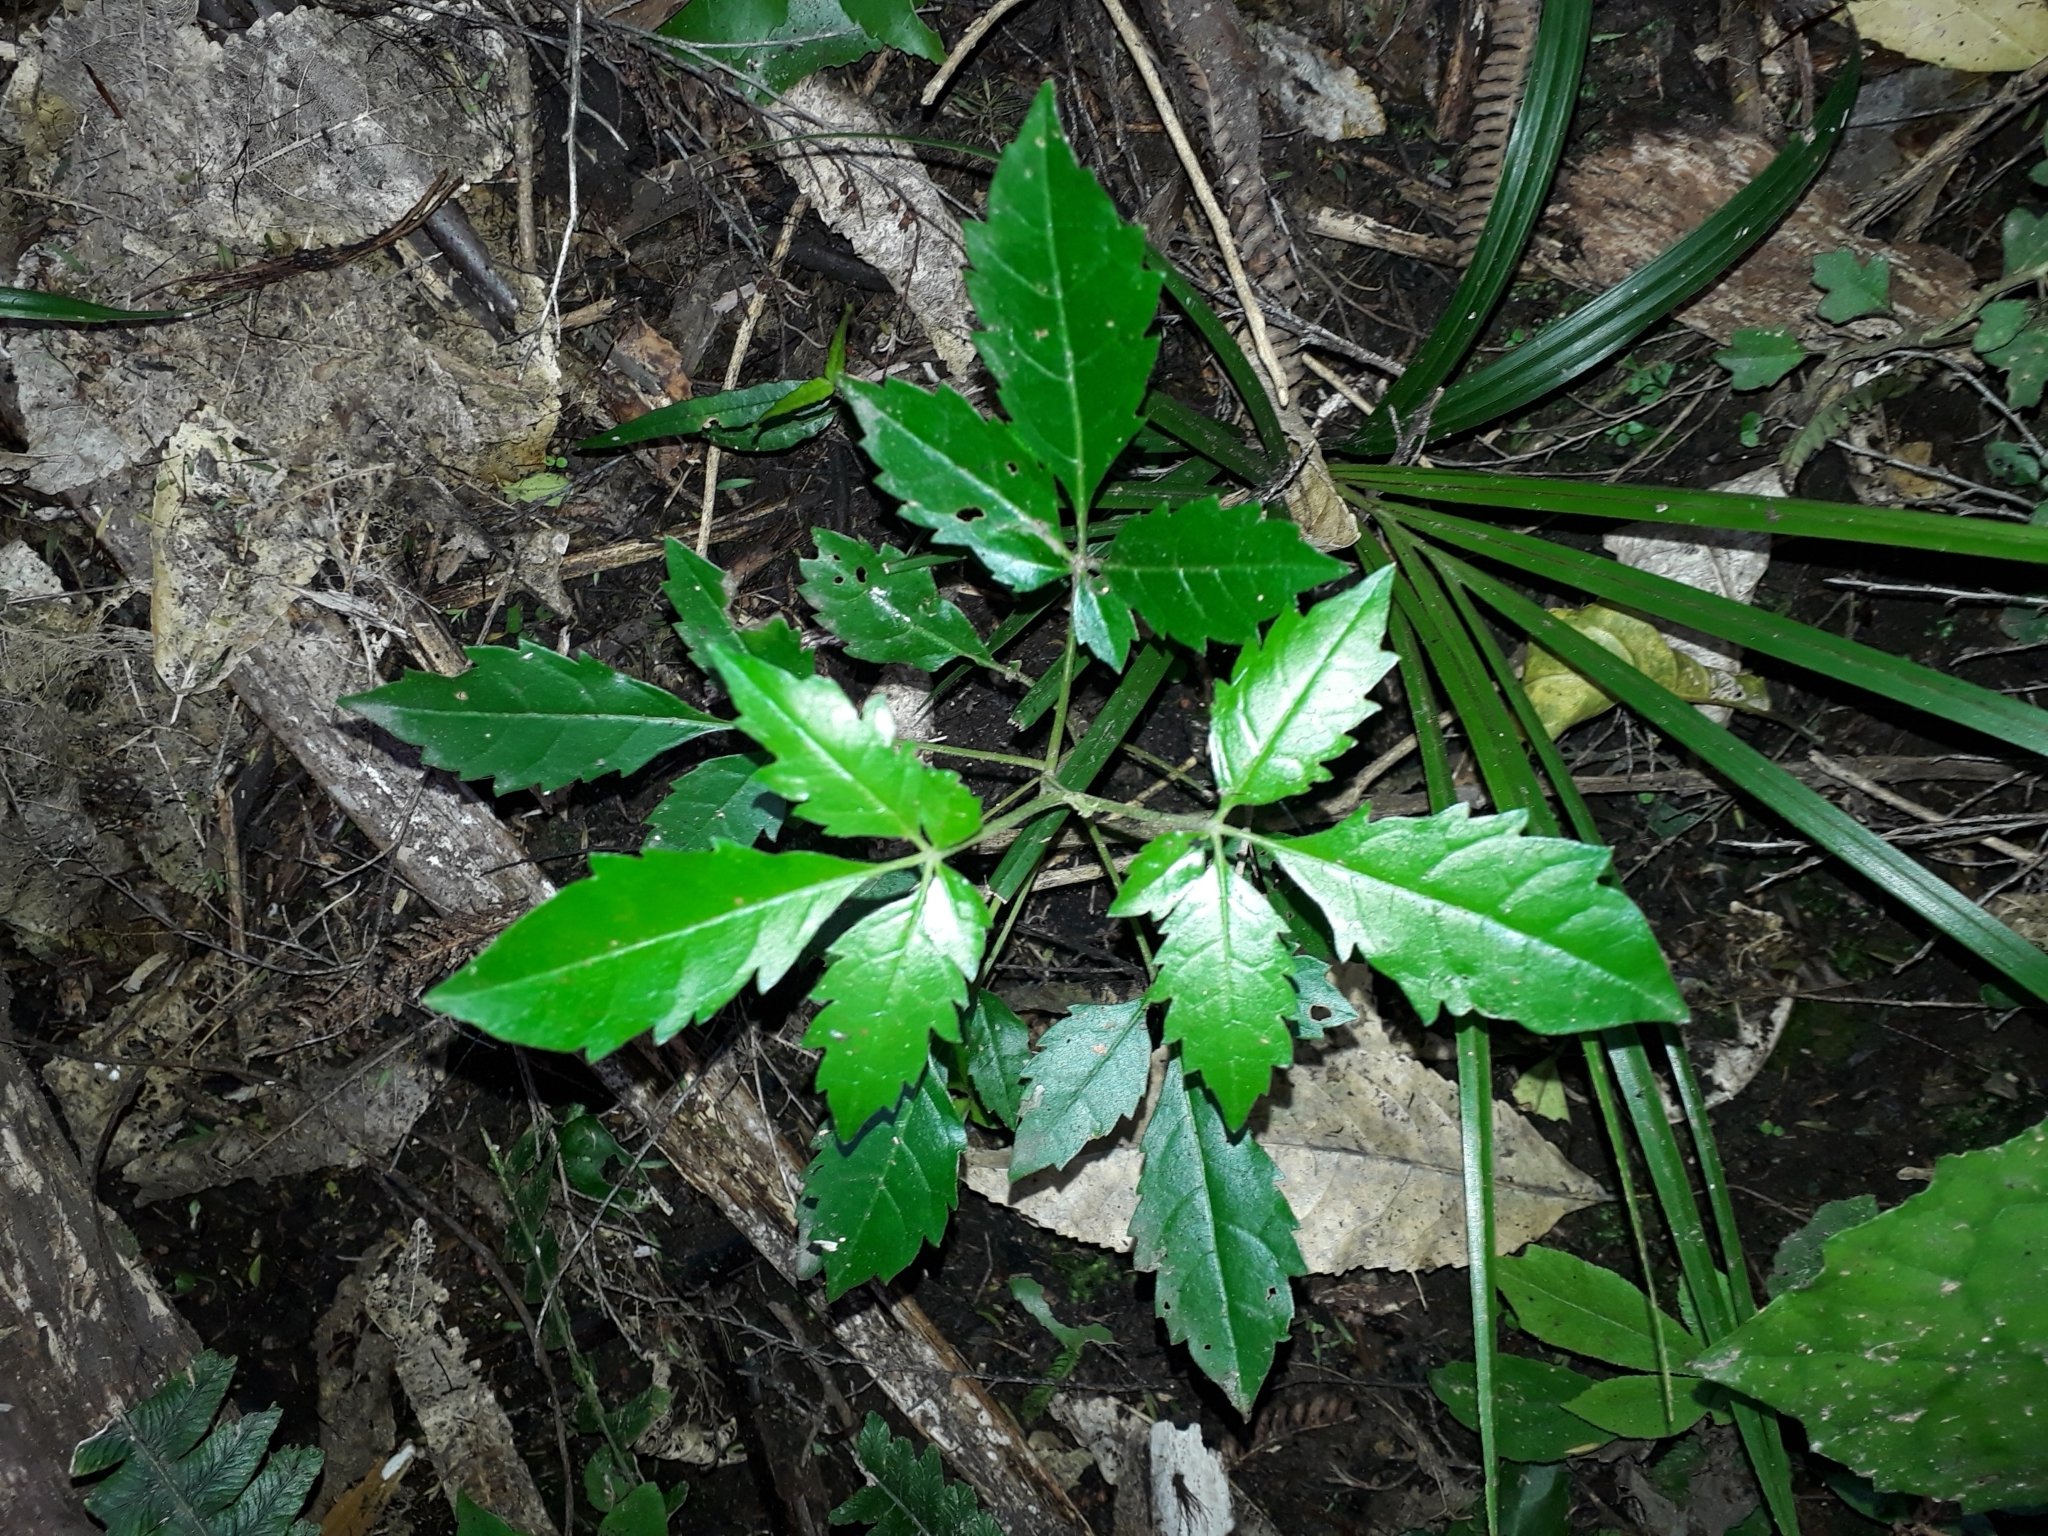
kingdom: Plantae
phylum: Tracheophyta
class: Magnoliopsida
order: Lamiales
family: Lamiaceae
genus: Vitex
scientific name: Vitex lucens
